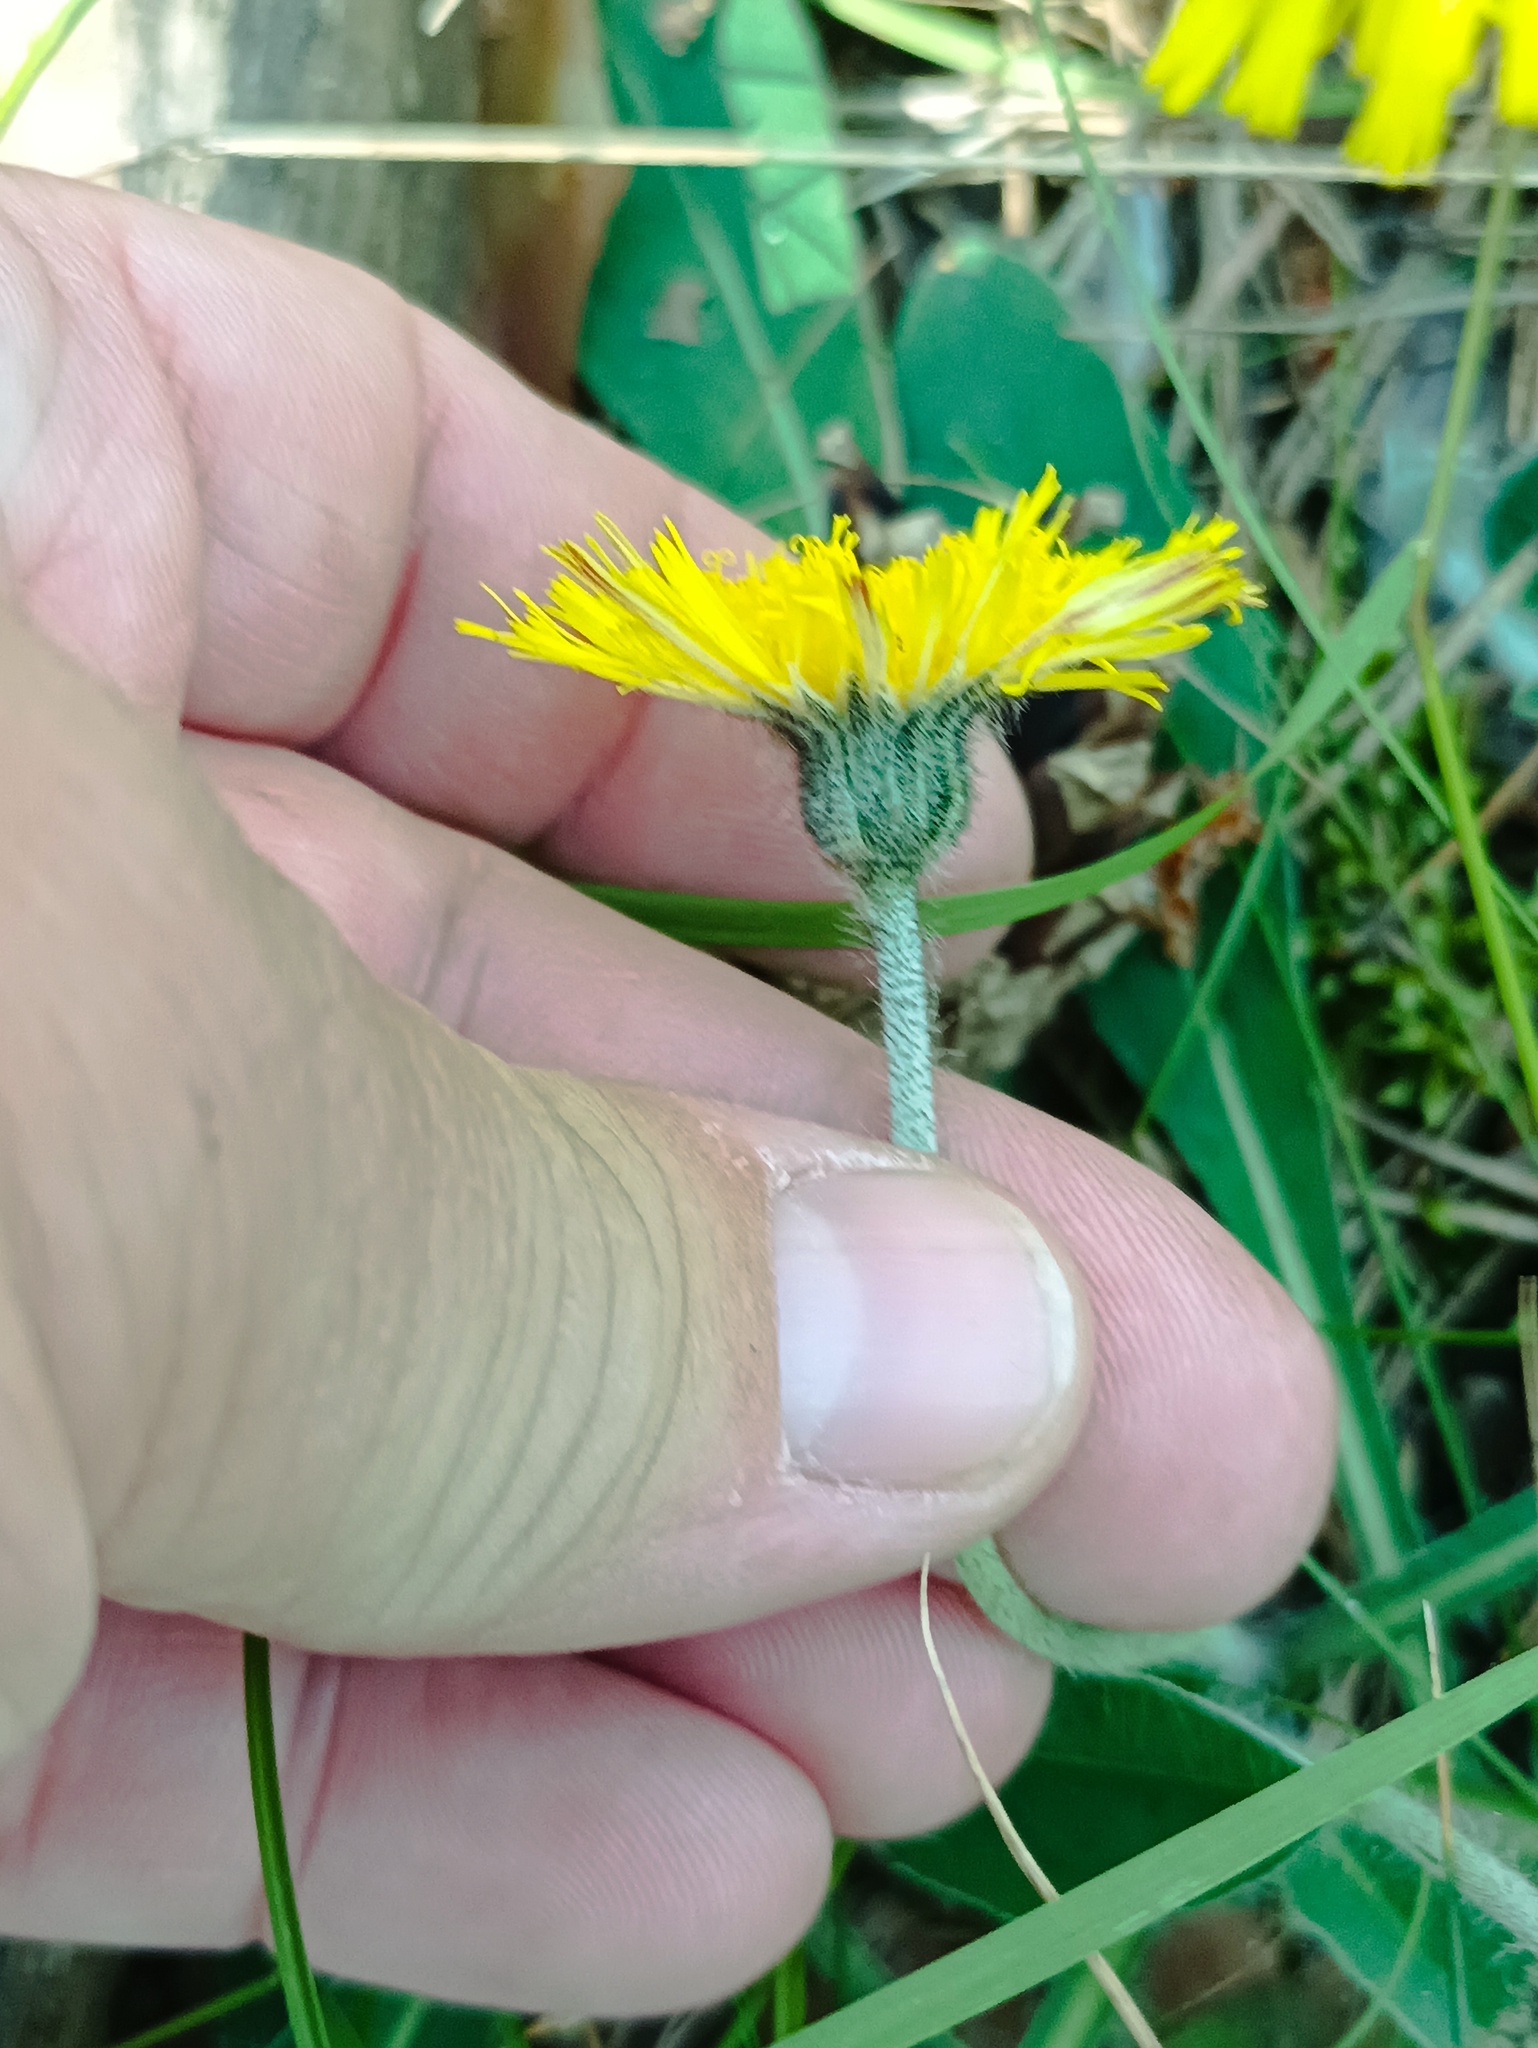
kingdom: Plantae
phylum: Tracheophyta
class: Magnoliopsida
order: Asterales
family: Asteraceae
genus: Pilosella
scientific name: Pilosella officinarum
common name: Mouse-ear hawkweed
